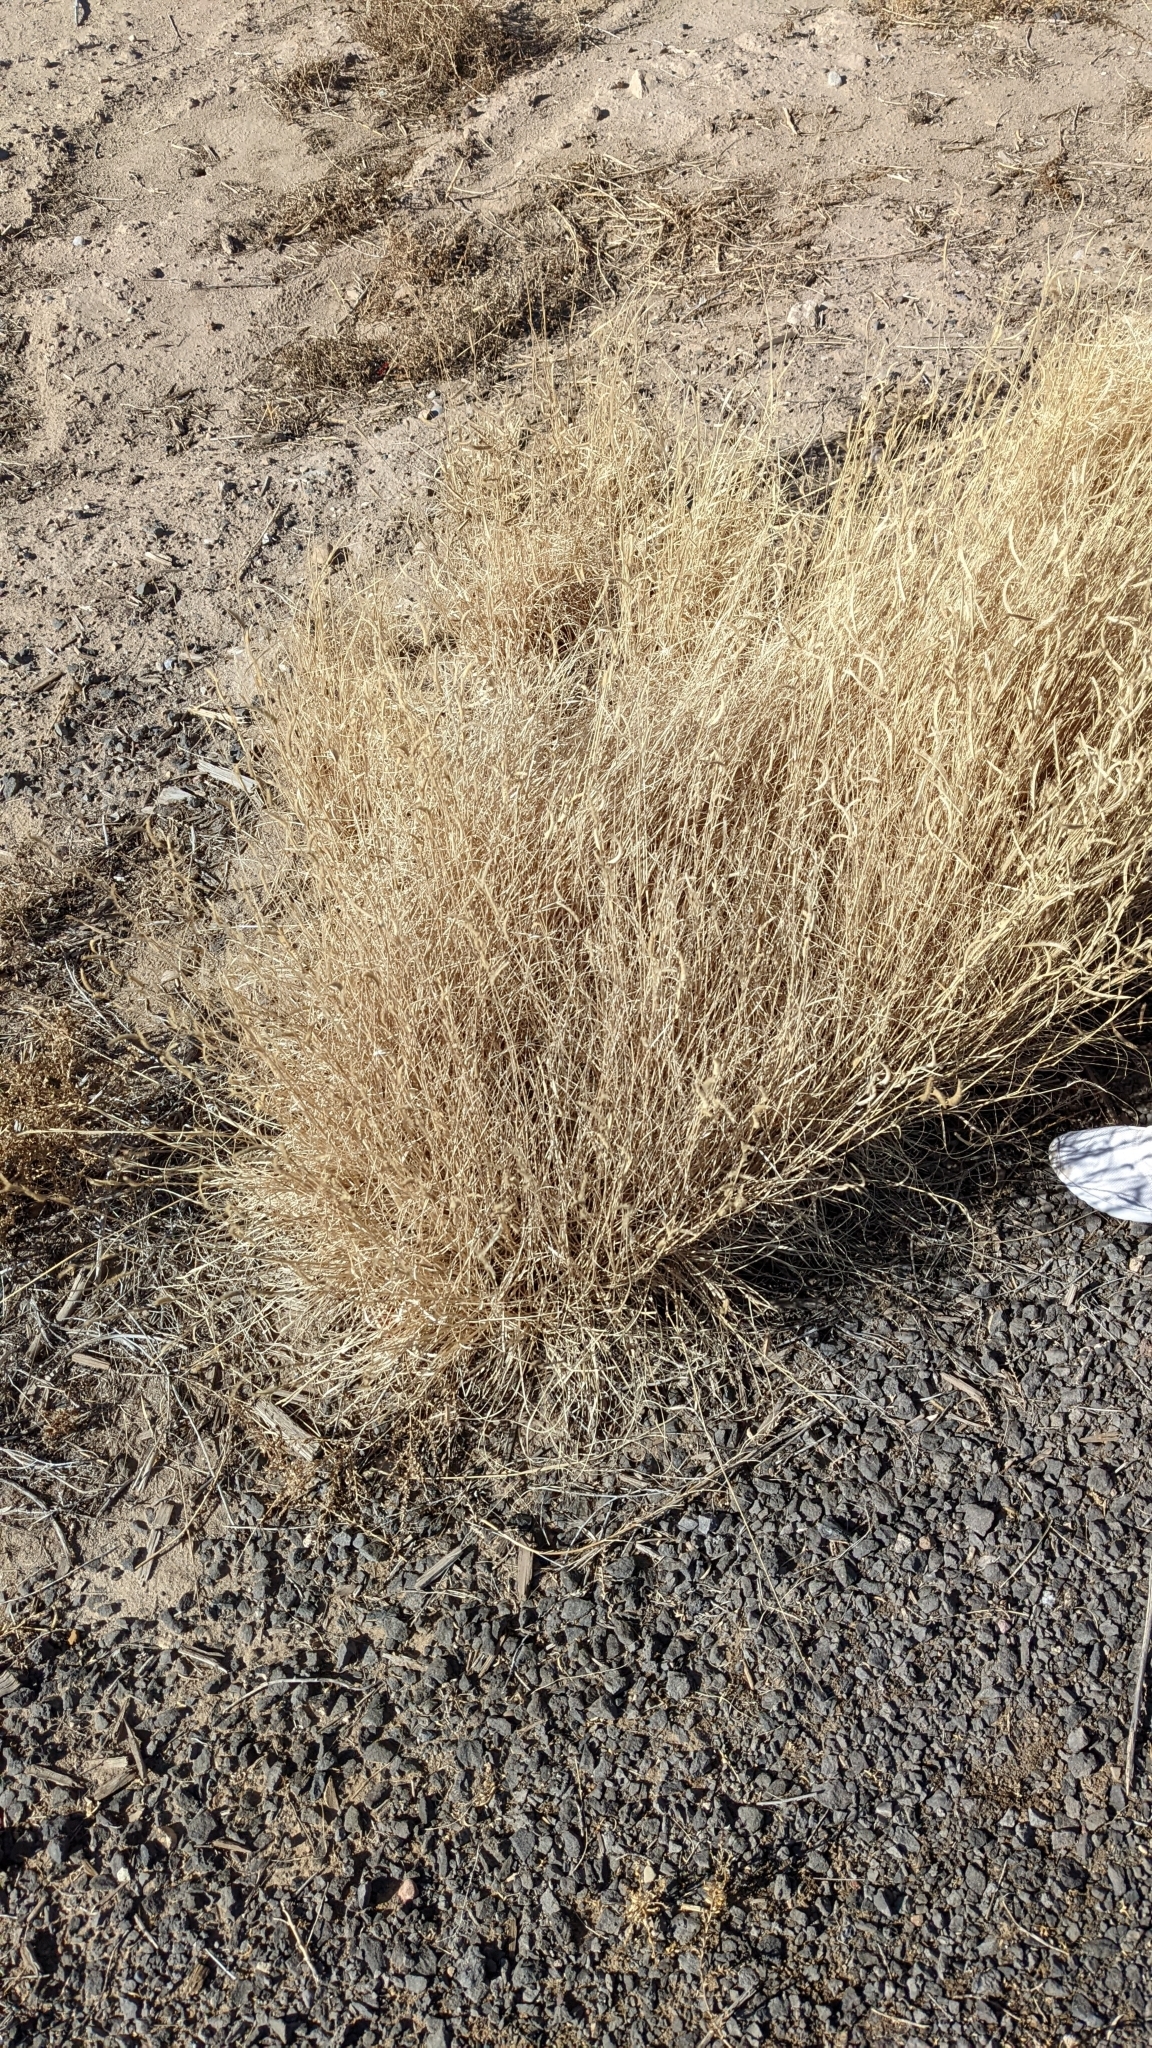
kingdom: Plantae
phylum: Tracheophyta
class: Liliopsida
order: Poales
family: Poaceae
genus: Bouteloua
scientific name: Bouteloua gracilis
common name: Blue grama
